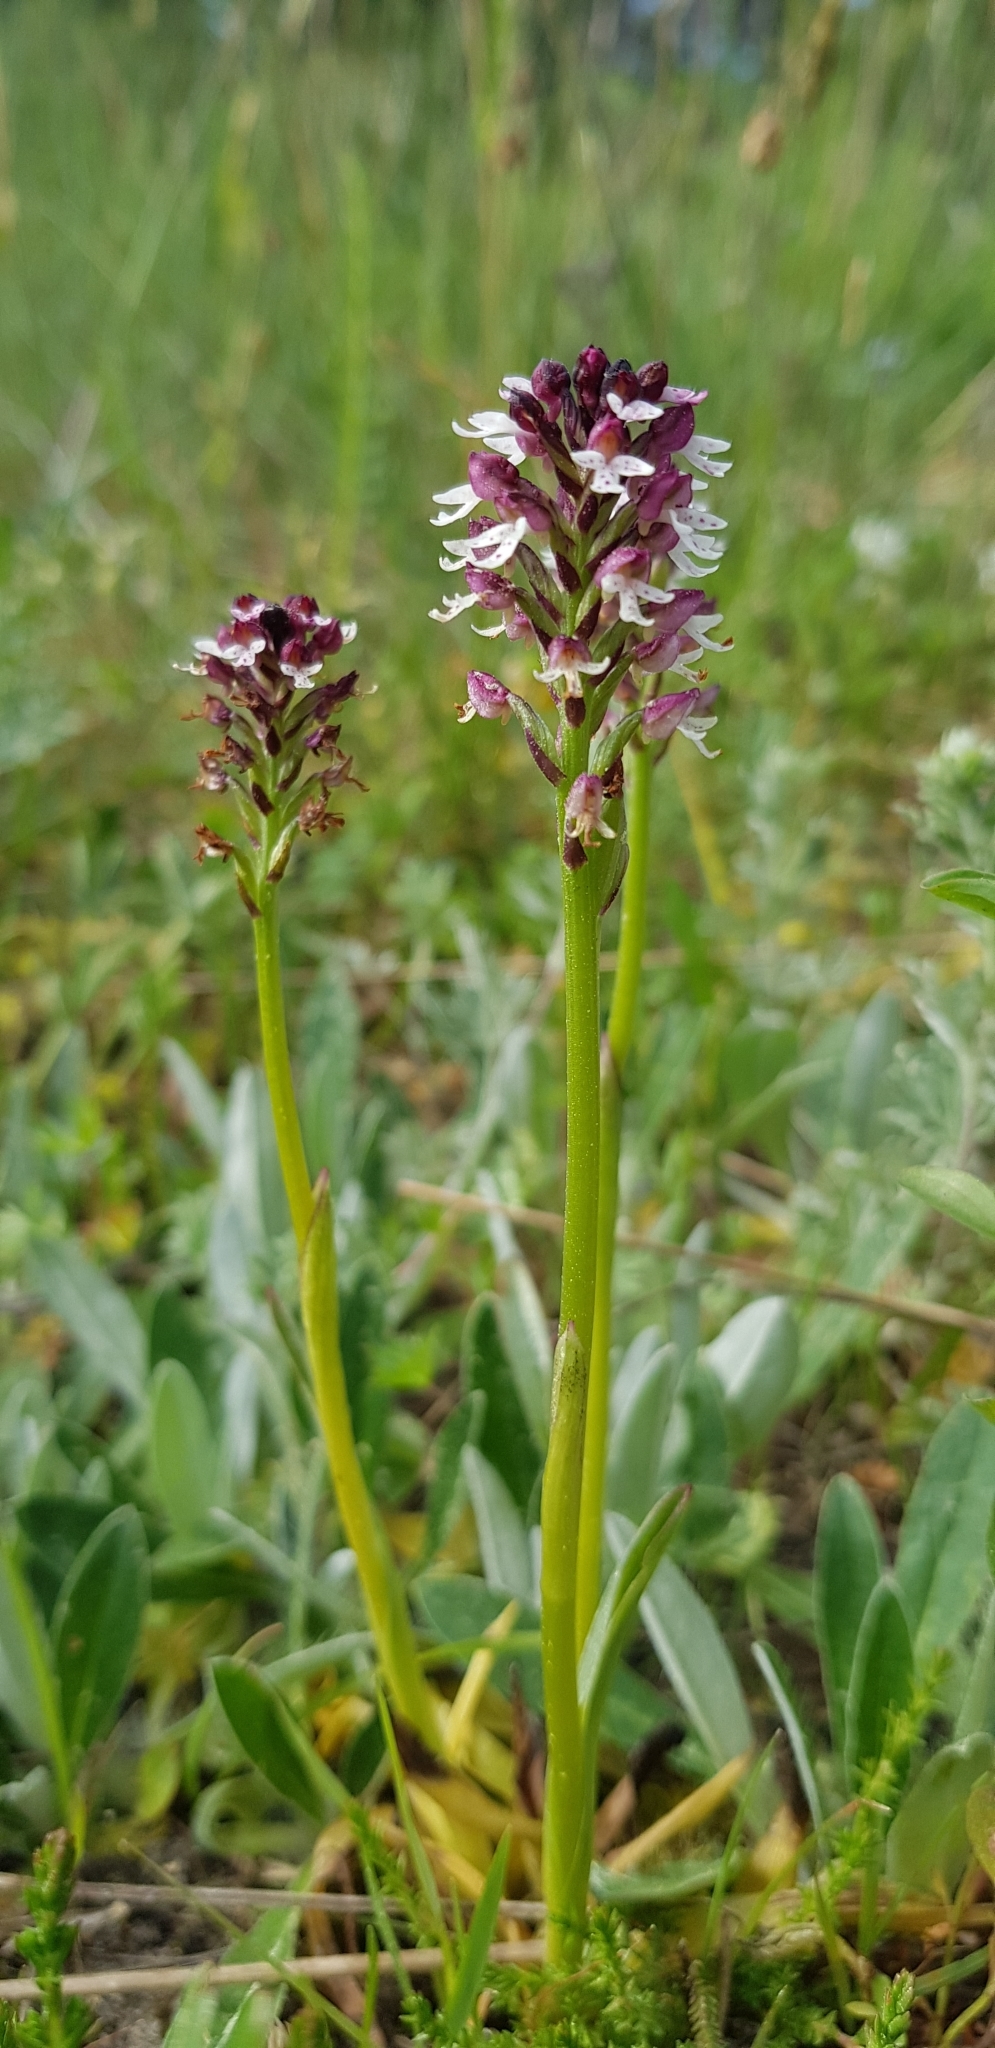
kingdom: Plantae
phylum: Tracheophyta
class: Liliopsida
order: Asparagales
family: Orchidaceae
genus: Neotinea
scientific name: Neotinea ustulata
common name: Burnt orchid
